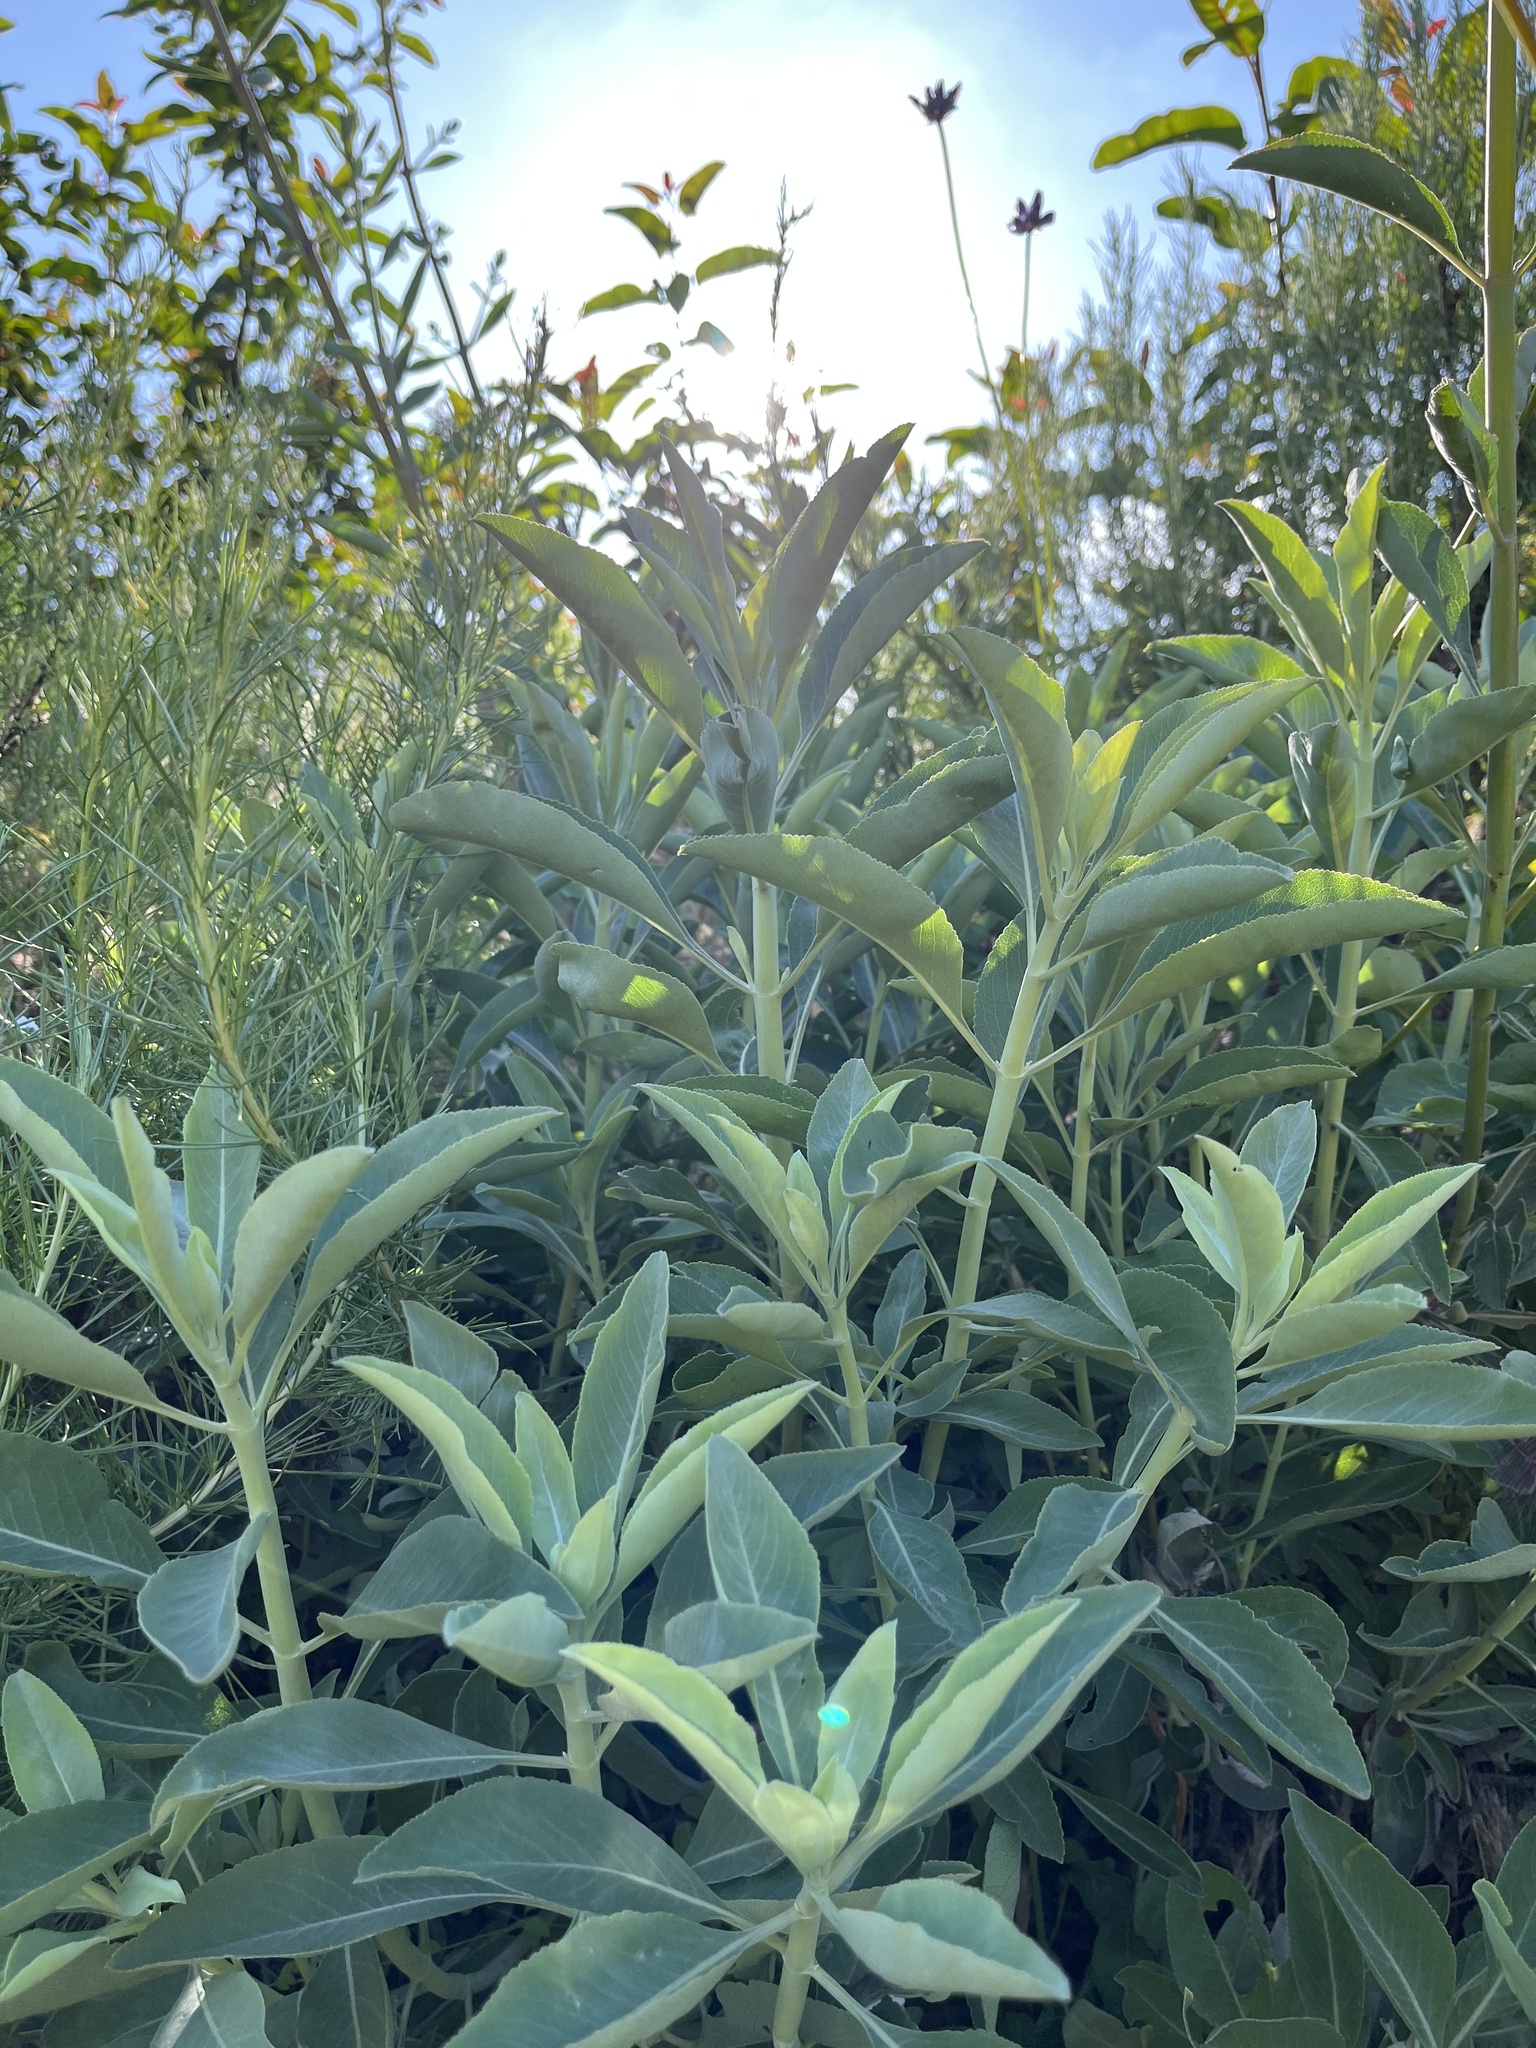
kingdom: Plantae
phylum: Tracheophyta
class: Magnoliopsida
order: Lamiales
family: Lamiaceae
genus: Salvia
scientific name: Salvia apiana
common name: White sage
